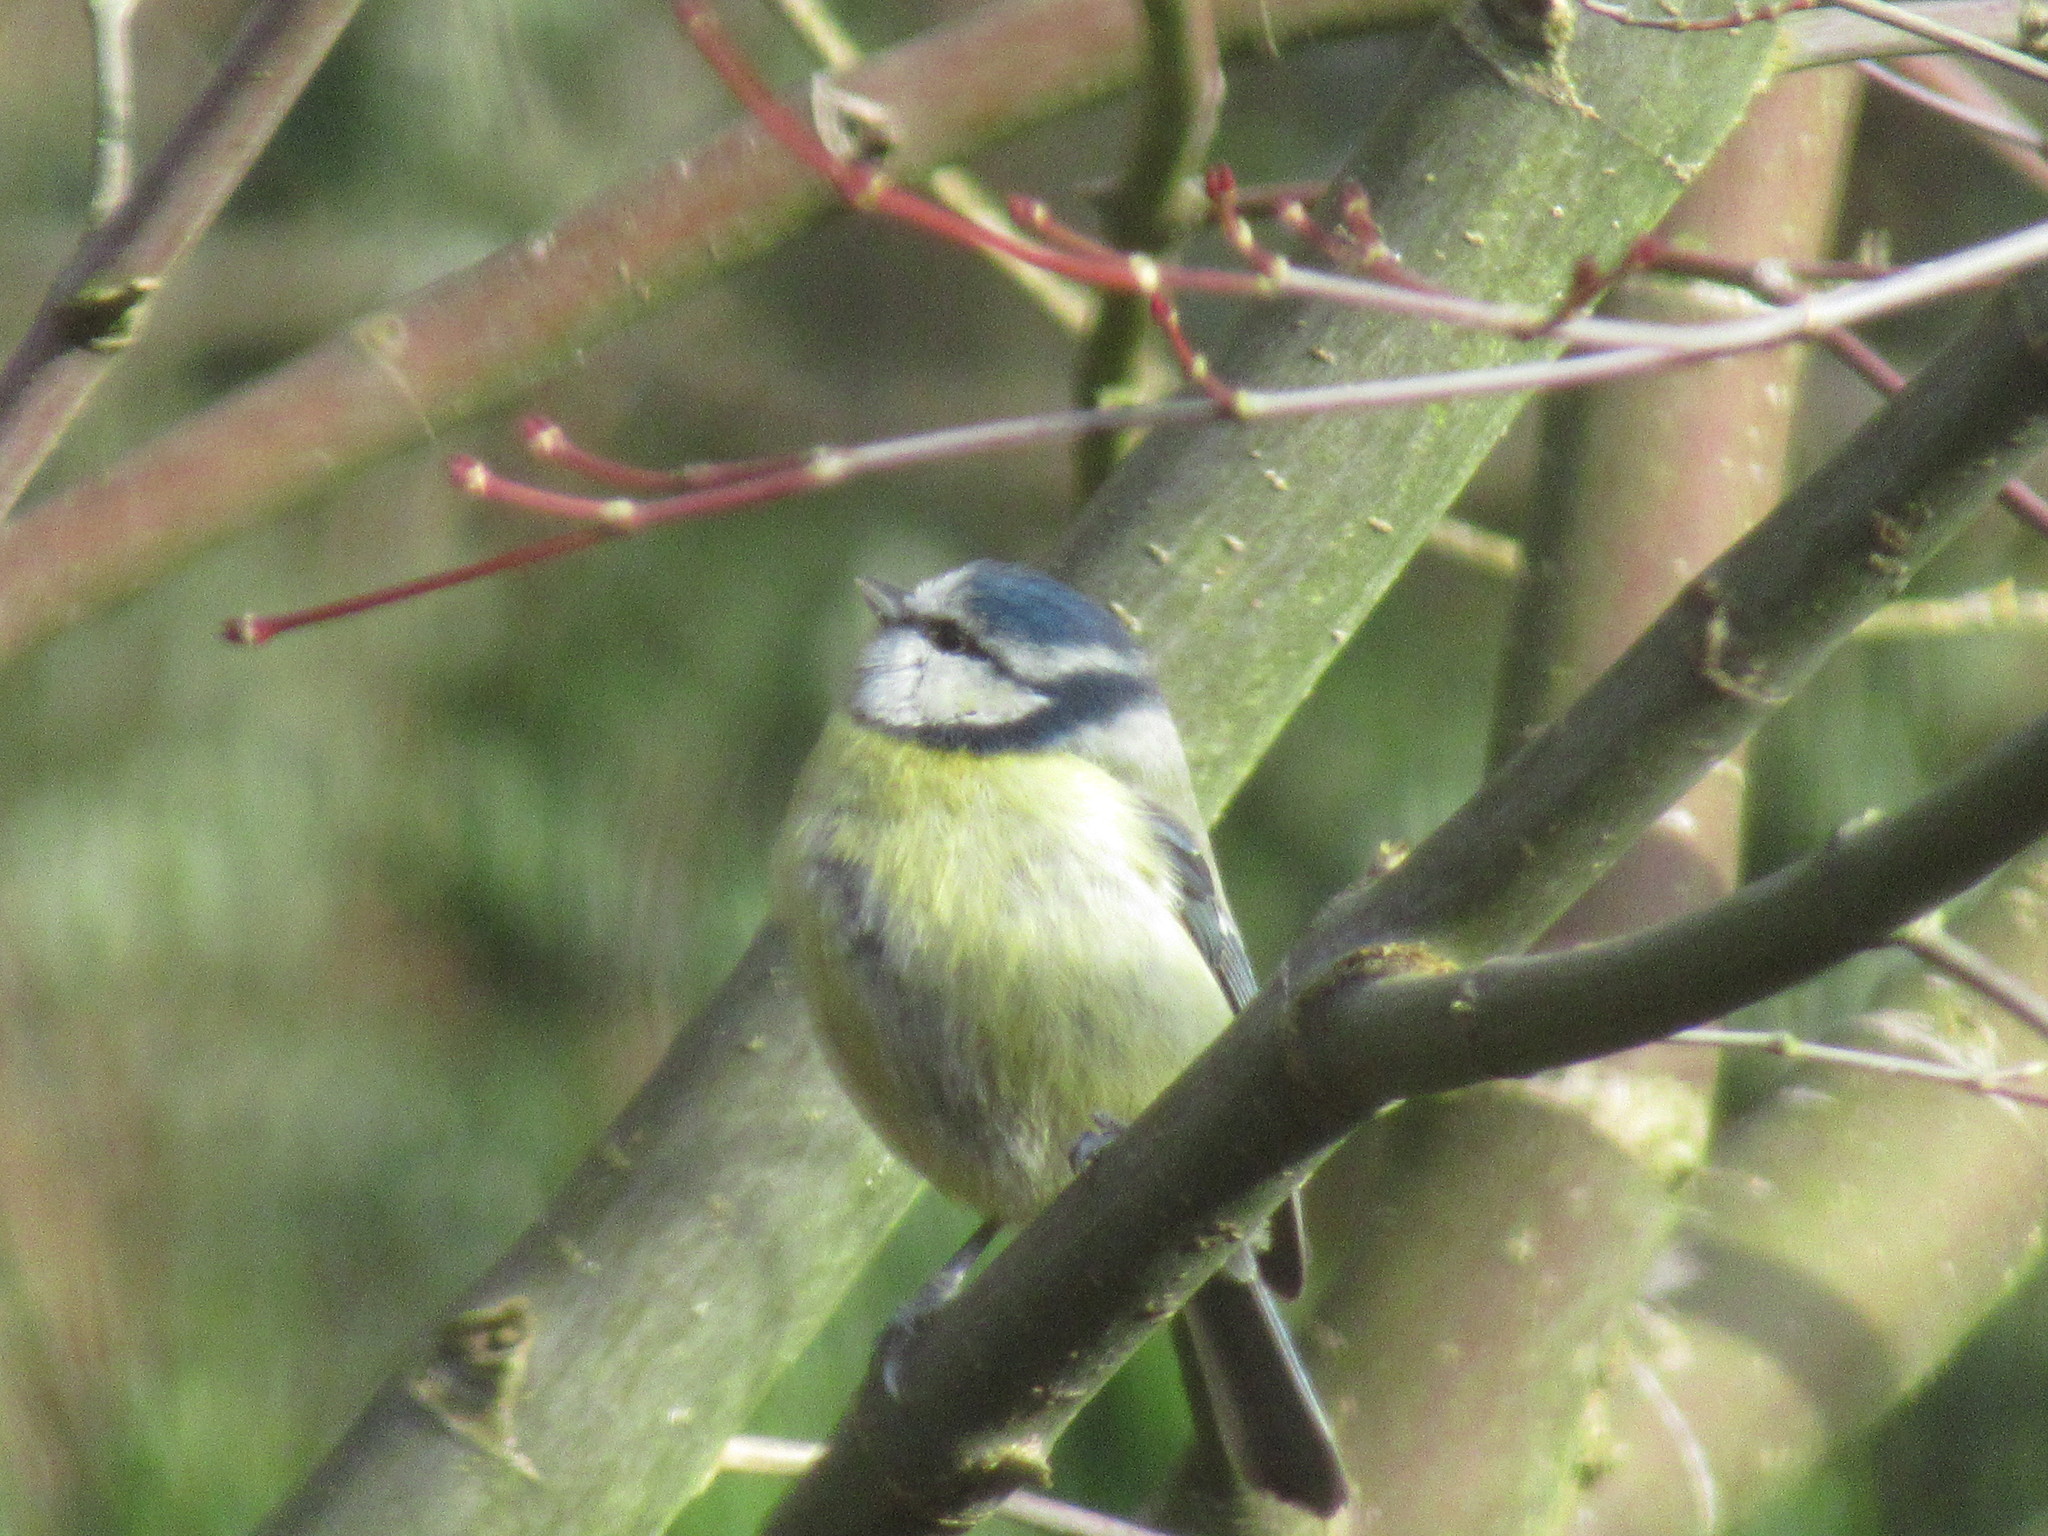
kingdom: Animalia
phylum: Chordata
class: Aves
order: Passeriformes
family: Paridae
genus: Cyanistes
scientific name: Cyanistes caeruleus
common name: Eurasian blue tit
